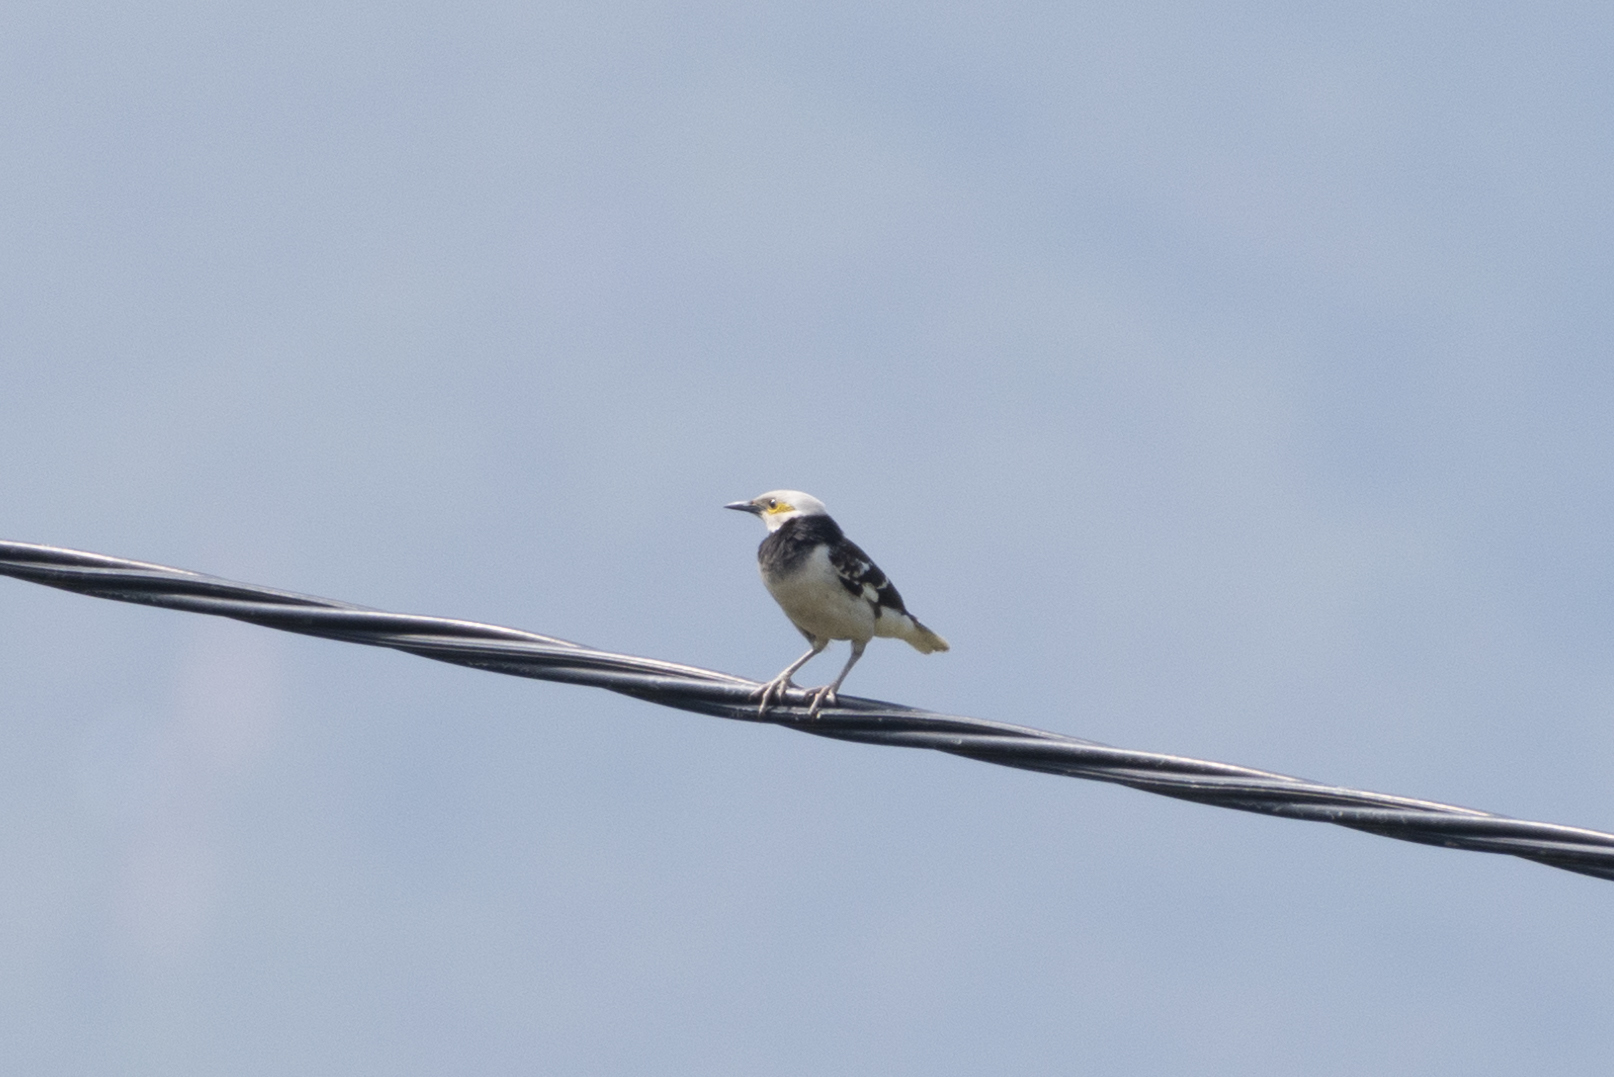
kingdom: Animalia
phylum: Chordata
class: Aves
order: Passeriformes
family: Sturnidae
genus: Gracupica
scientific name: Gracupica nigricollis
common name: Black-collared starling
